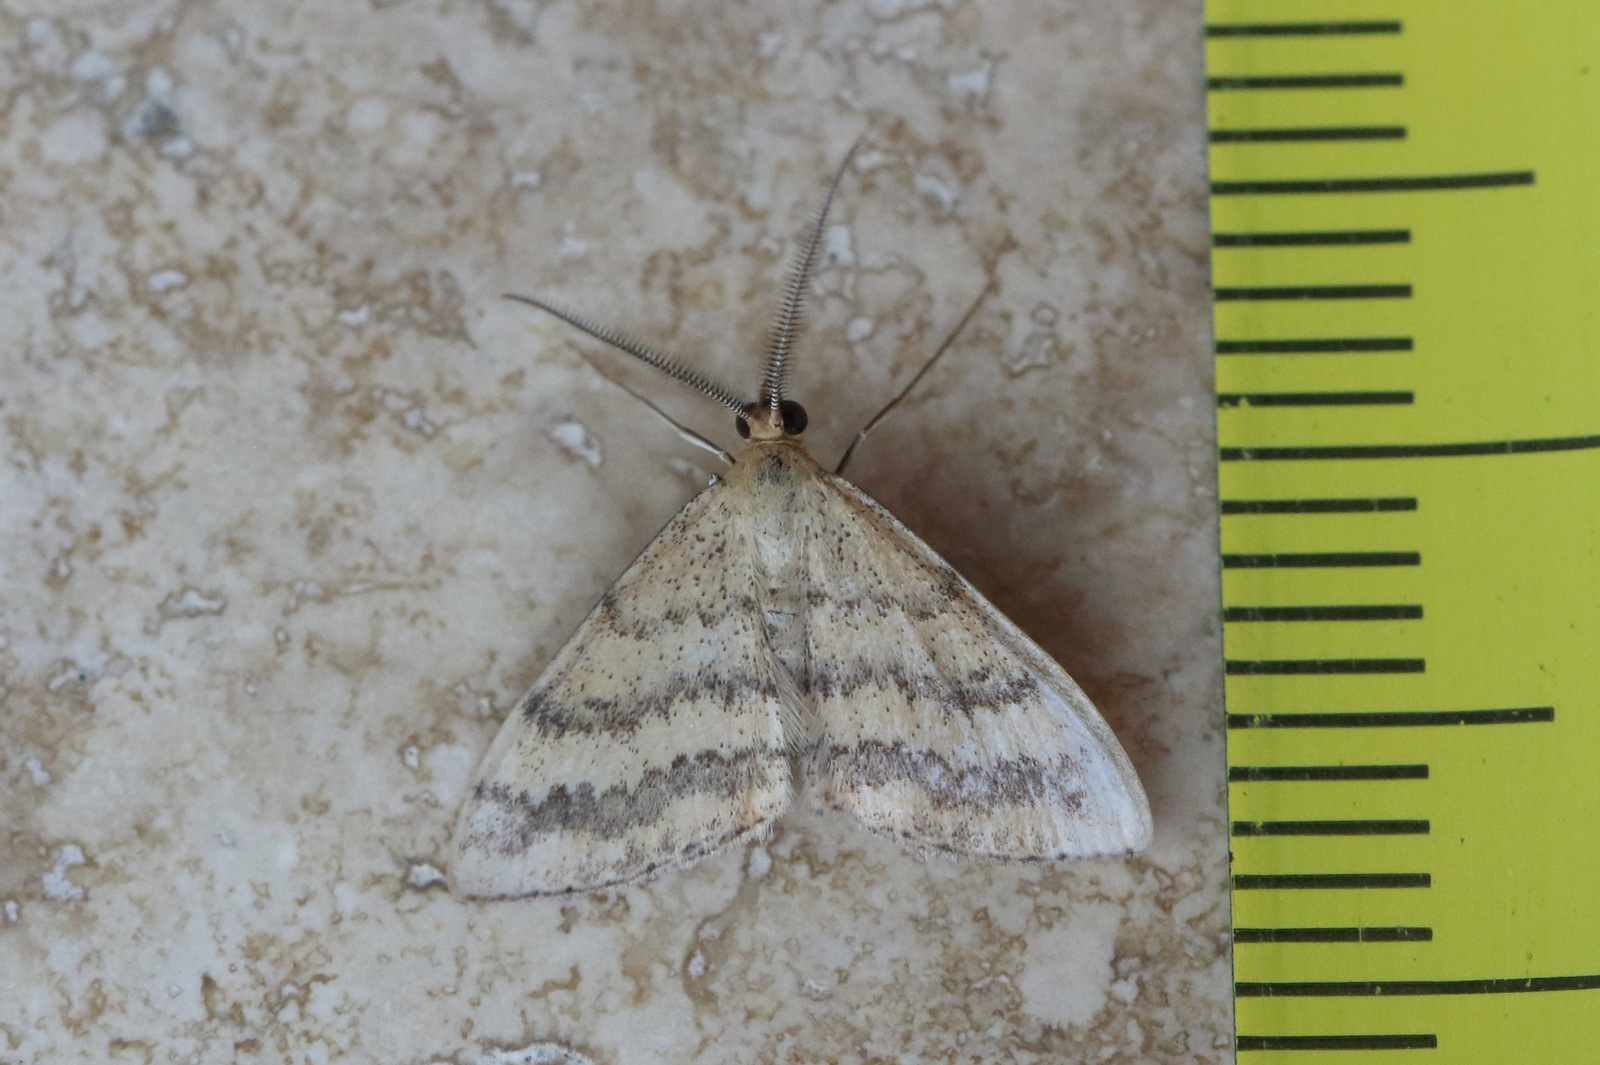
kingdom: Animalia
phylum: Arthropoda
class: Insecta
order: Lepidoptera
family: Geometridae
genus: Scopula
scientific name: Scopula rubraria
